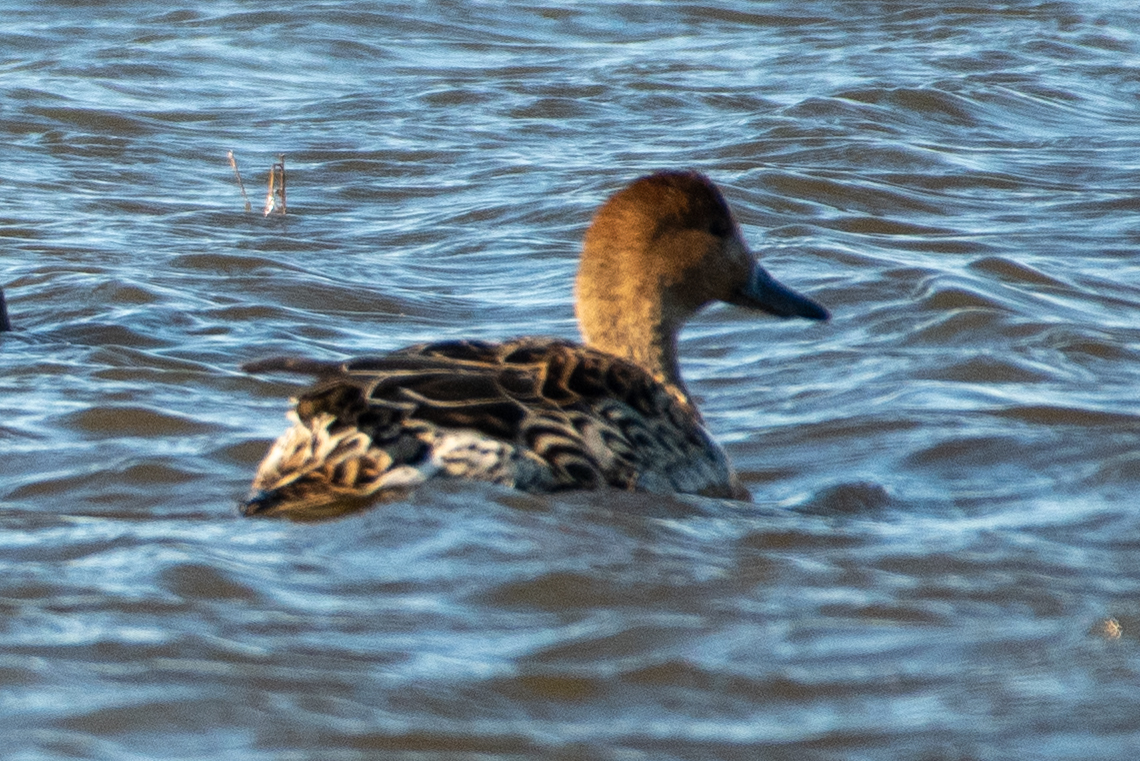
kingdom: Animalia
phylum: Chordata
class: Aves
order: Anseriformes
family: Anatidae
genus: Anas
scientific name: Anas acuta
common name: Northern pintail
